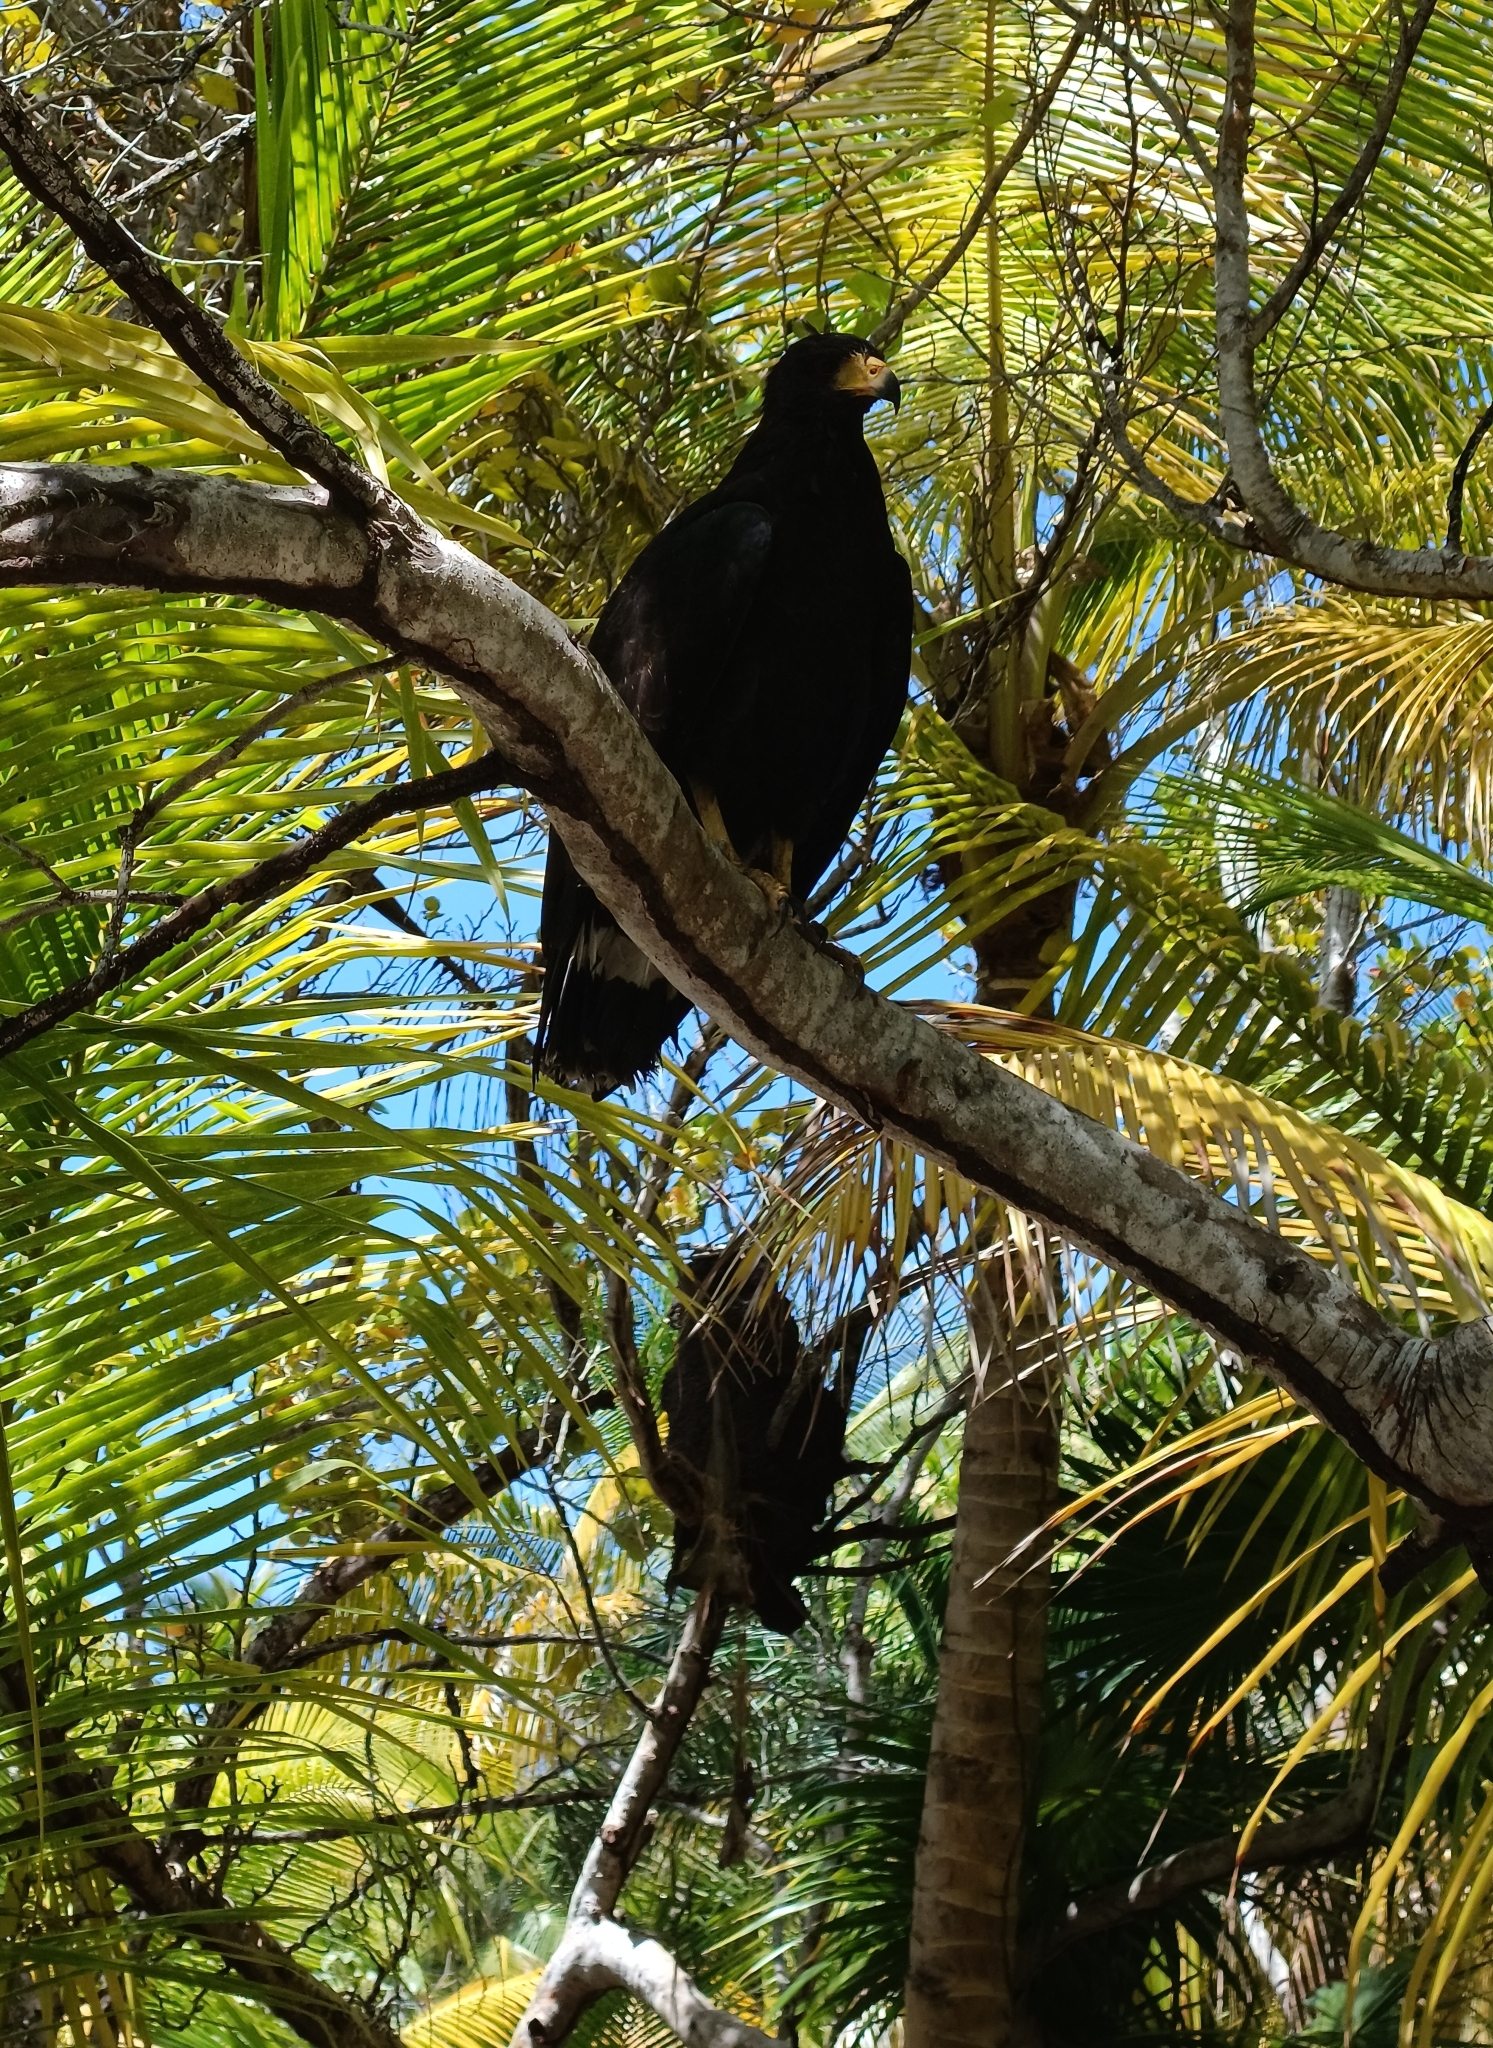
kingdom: Animalia
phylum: Chordata
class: Aves
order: Accipitriformes
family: Accipitridae
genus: Buteogallus
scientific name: Buteogallus anthracinus
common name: Common black hawk
